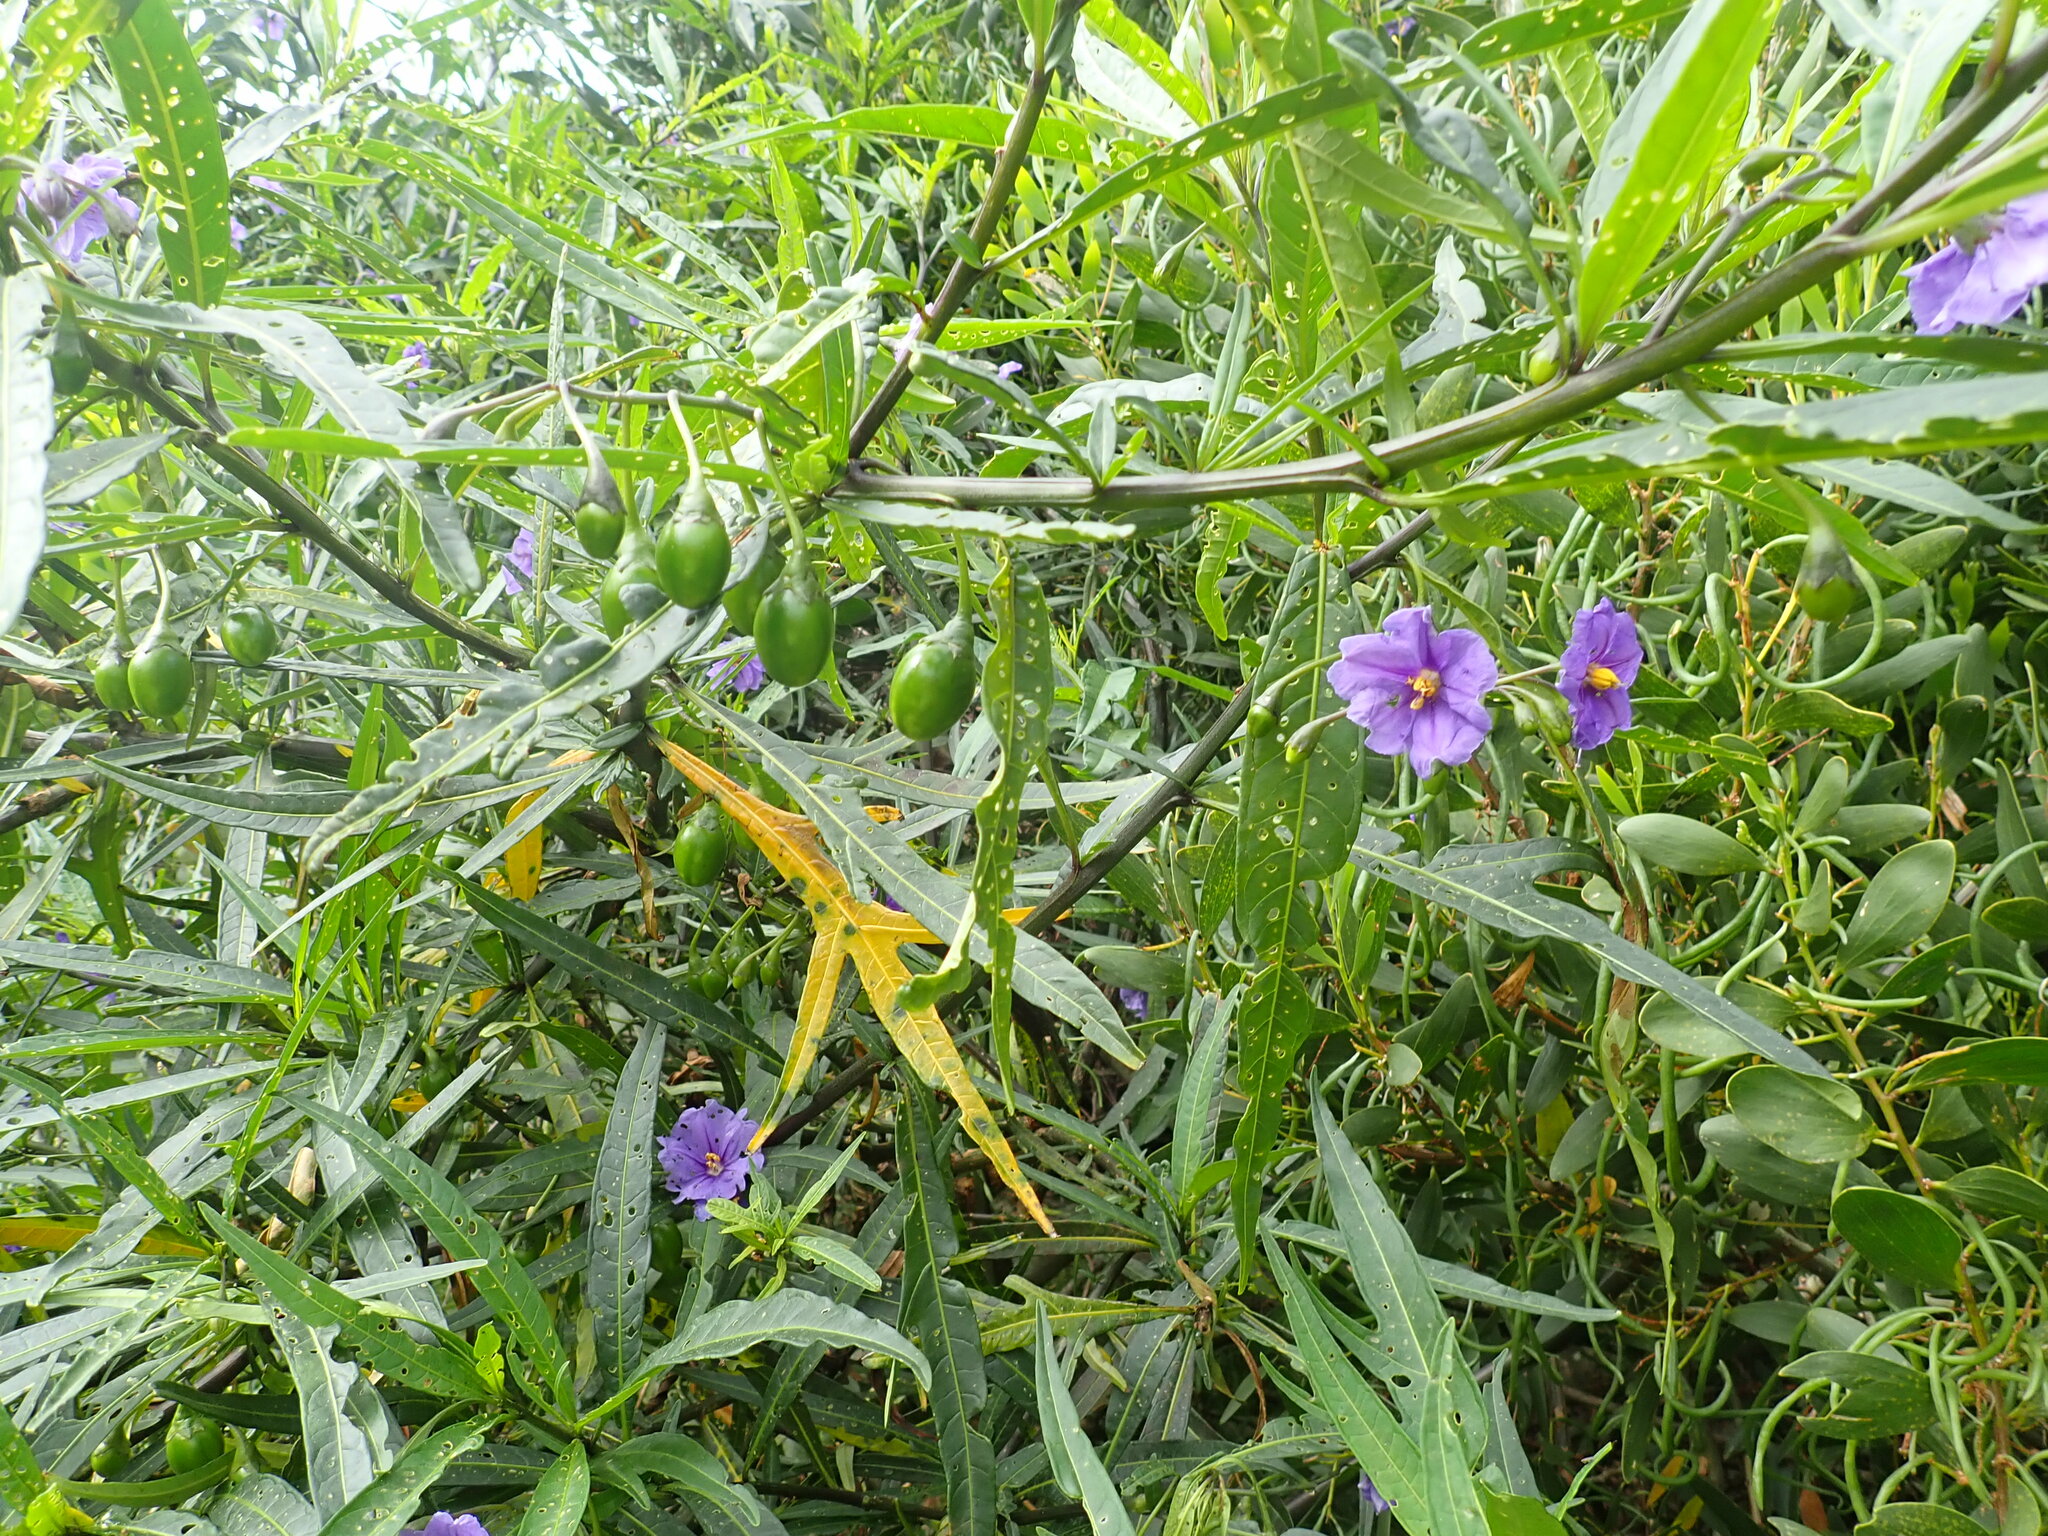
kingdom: Plantae
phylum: Tracheophyta
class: Magnoliopsida
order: Solanales
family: Solanaceae
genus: Solanum
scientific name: Solanum laciniatum
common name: Kangaroo-apple
